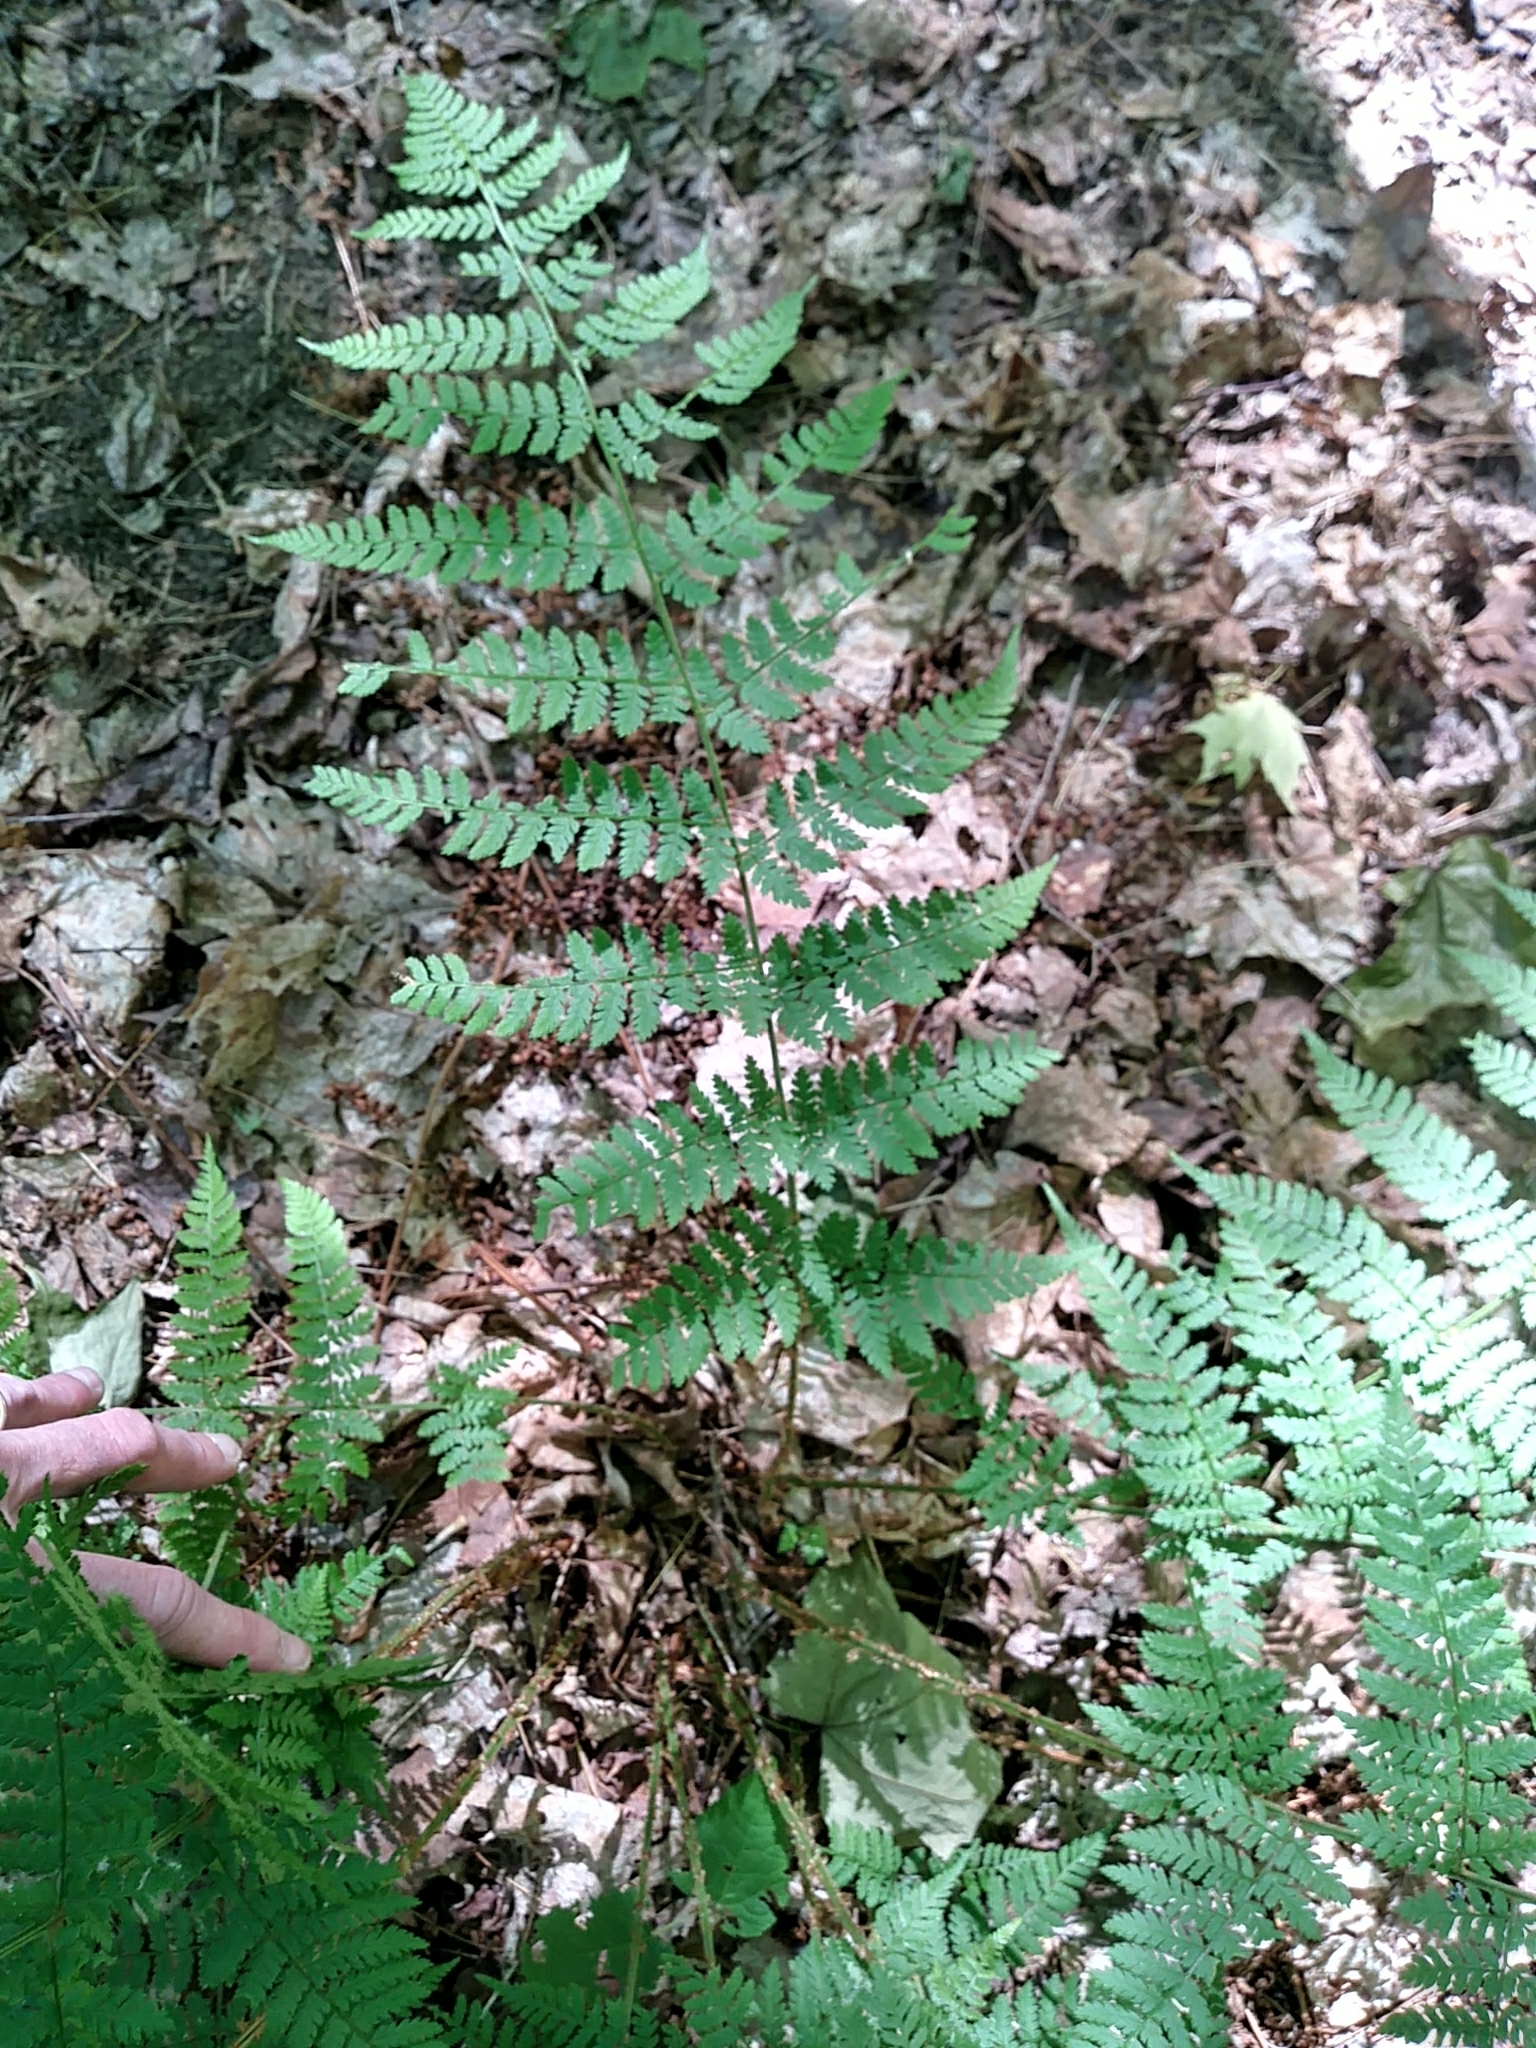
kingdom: Plantae
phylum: Tracheophyta
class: Polypodiopsida
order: Polypodiales
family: Dryopteridaceae
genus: Dryopteris
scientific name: Dryopteris intermedia
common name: Evergreen wood fern
